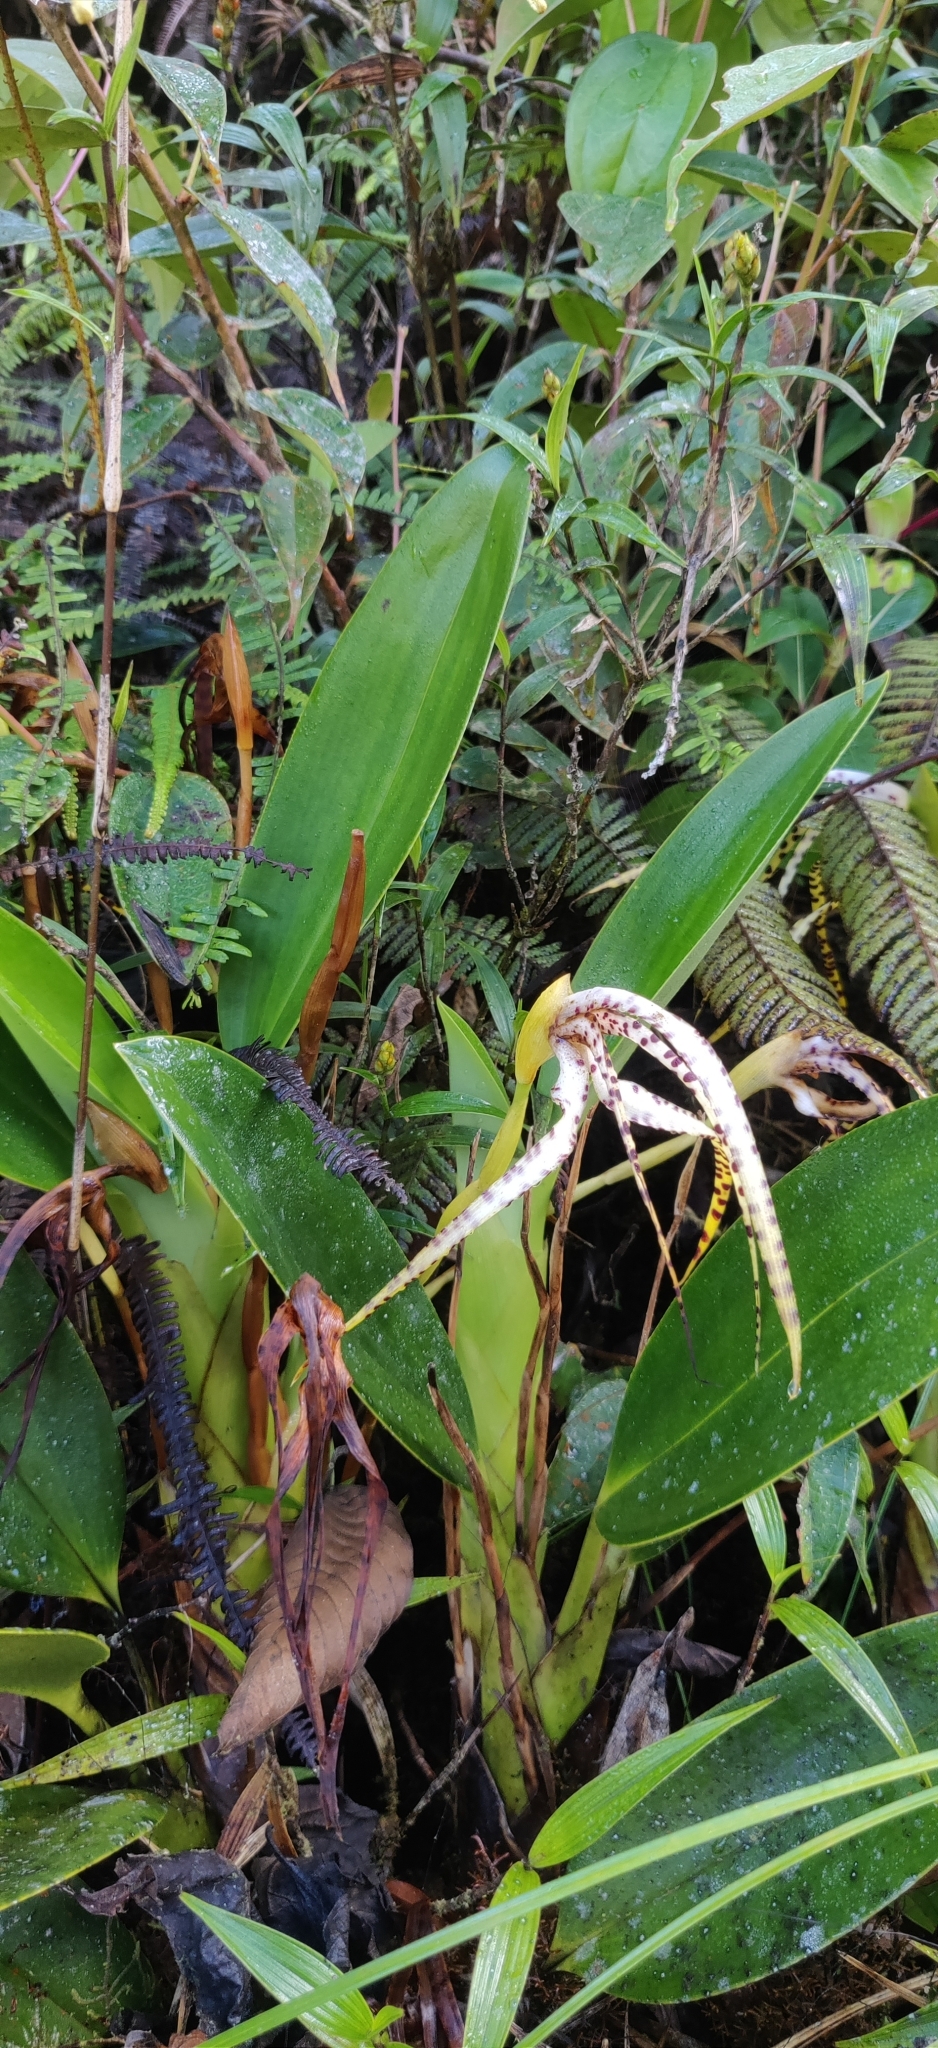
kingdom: Plantae
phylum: Tracheophyta
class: Liliopsida
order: Asparagales
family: Orchidaceae
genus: Maxillaria
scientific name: Maxillaria speciosa
